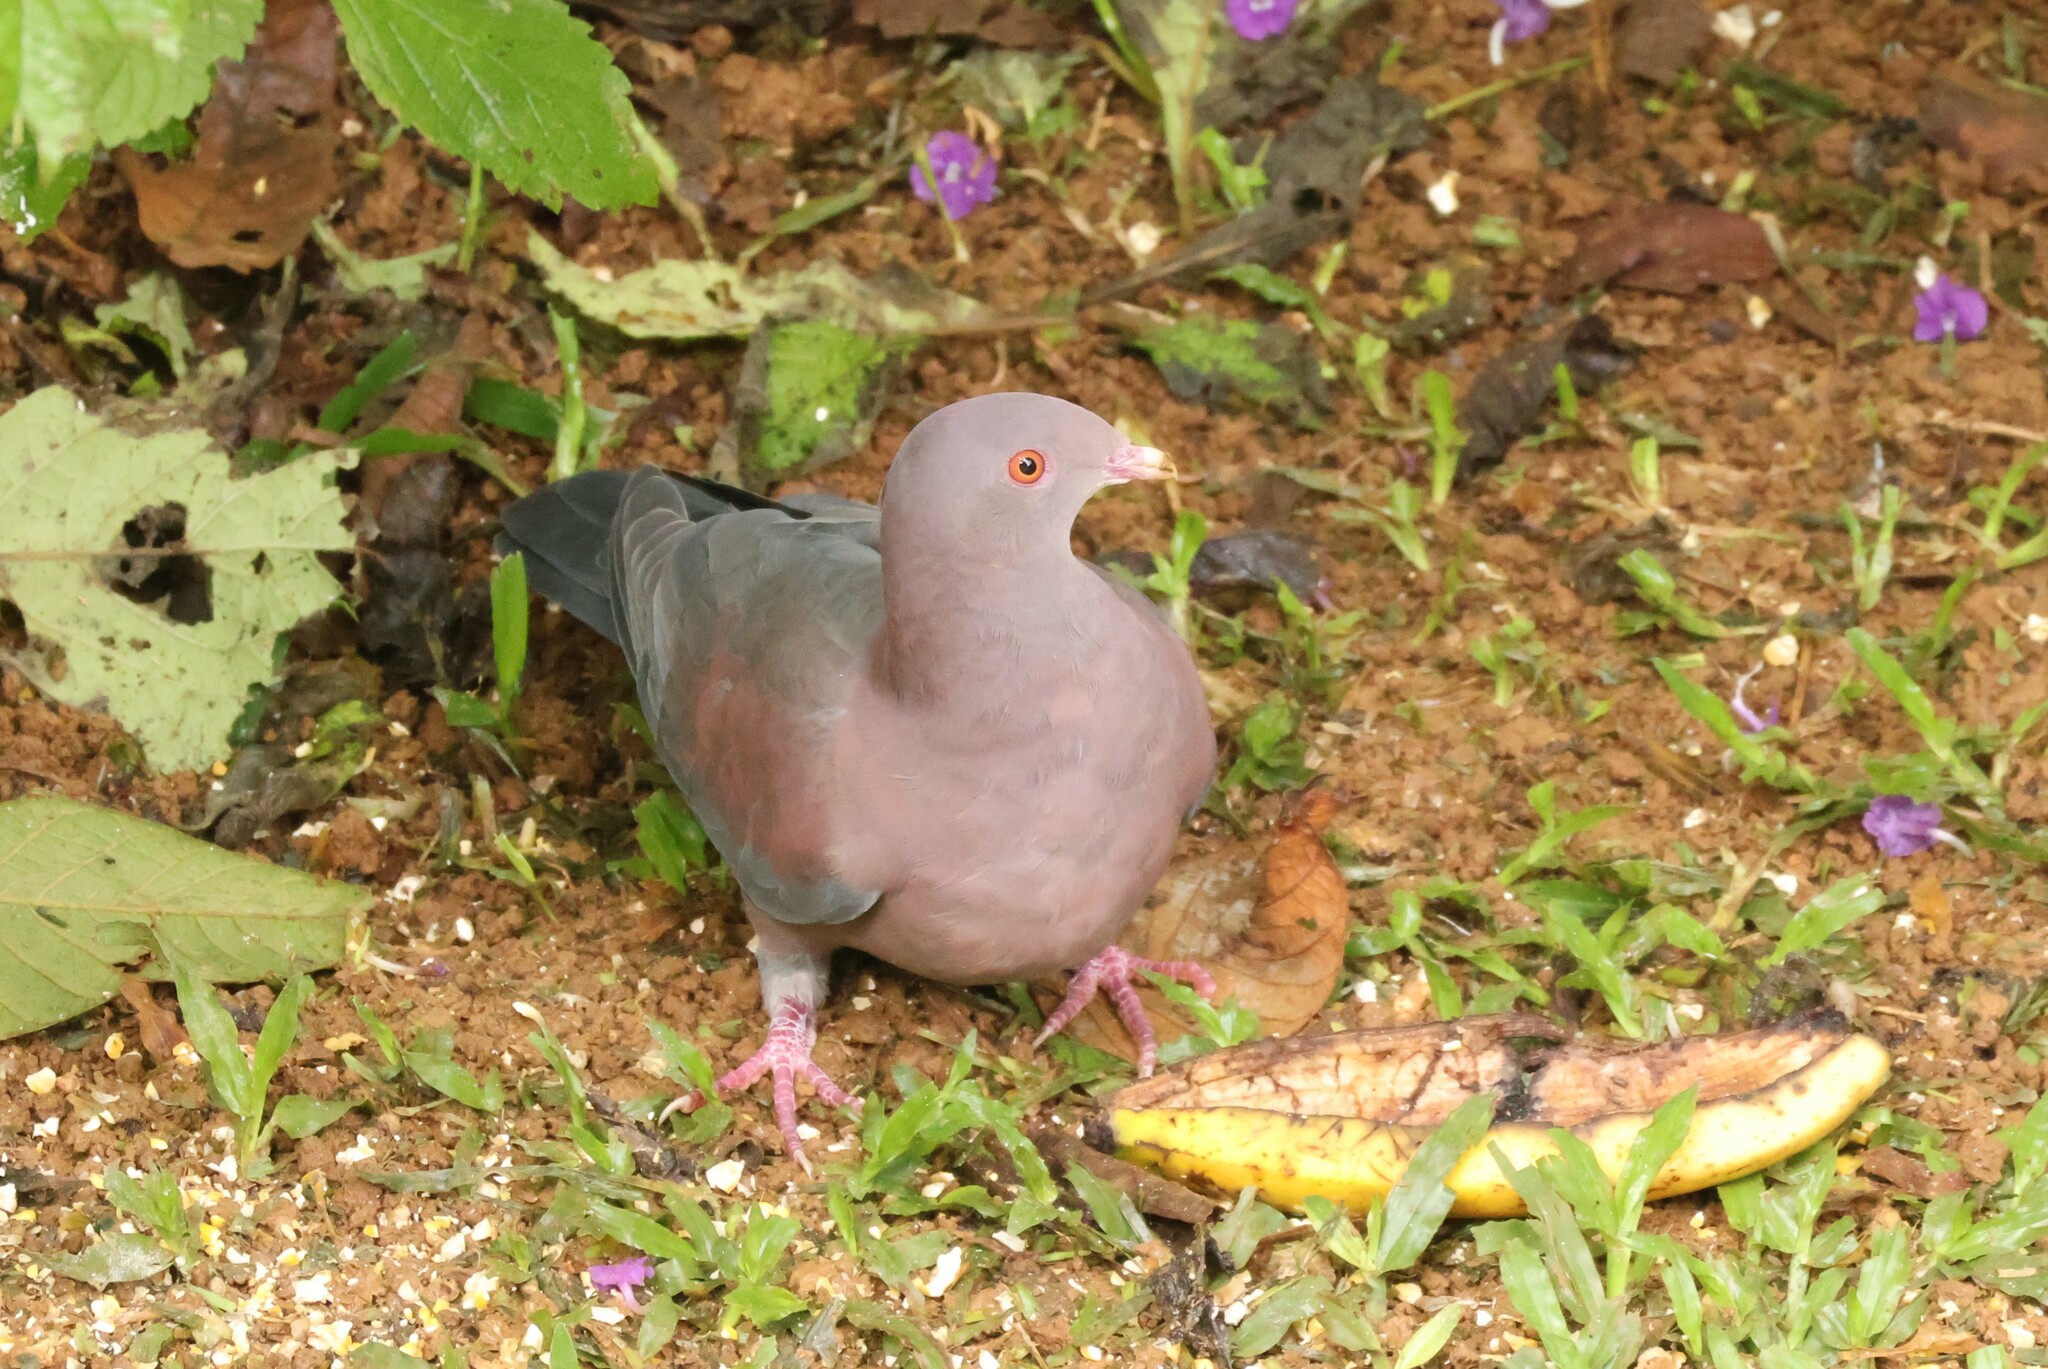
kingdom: Animalia
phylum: Chordata
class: Aves
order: Columbiformes
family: Columbidae
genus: Patagioenas
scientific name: Patagioenas flavirostris
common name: Red-billed pigeon
